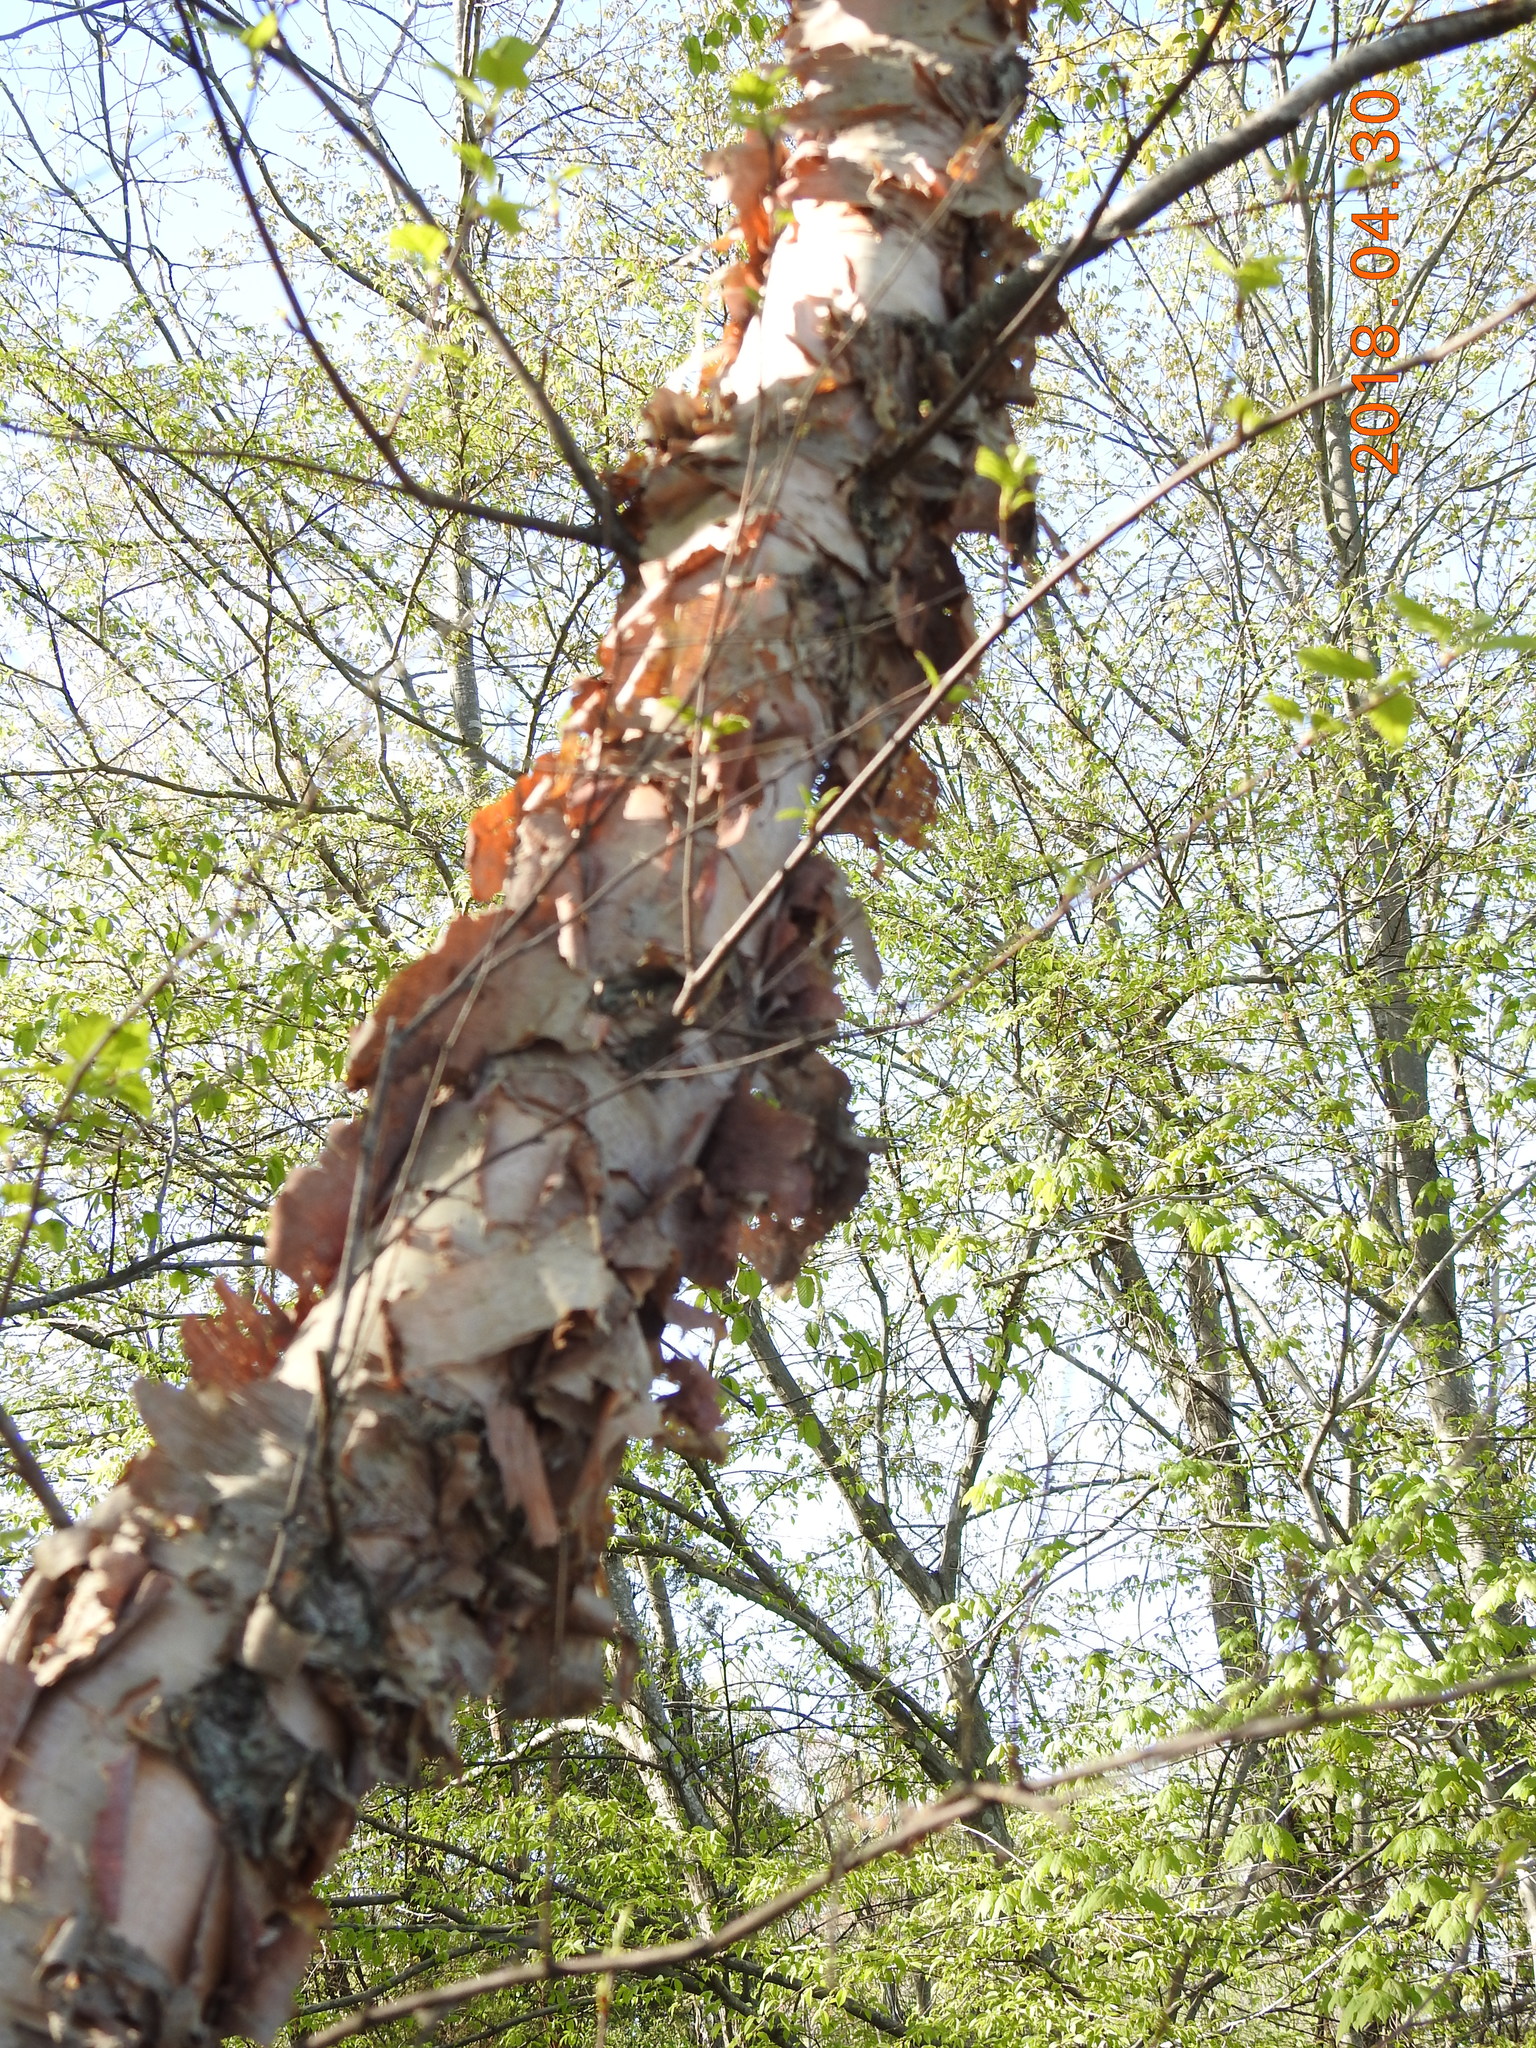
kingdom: Plantae
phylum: Tracheophyta
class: Magnoliopsida
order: Fagales
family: Betulaceae
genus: Betula
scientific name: Betula nigra
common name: Black birch
